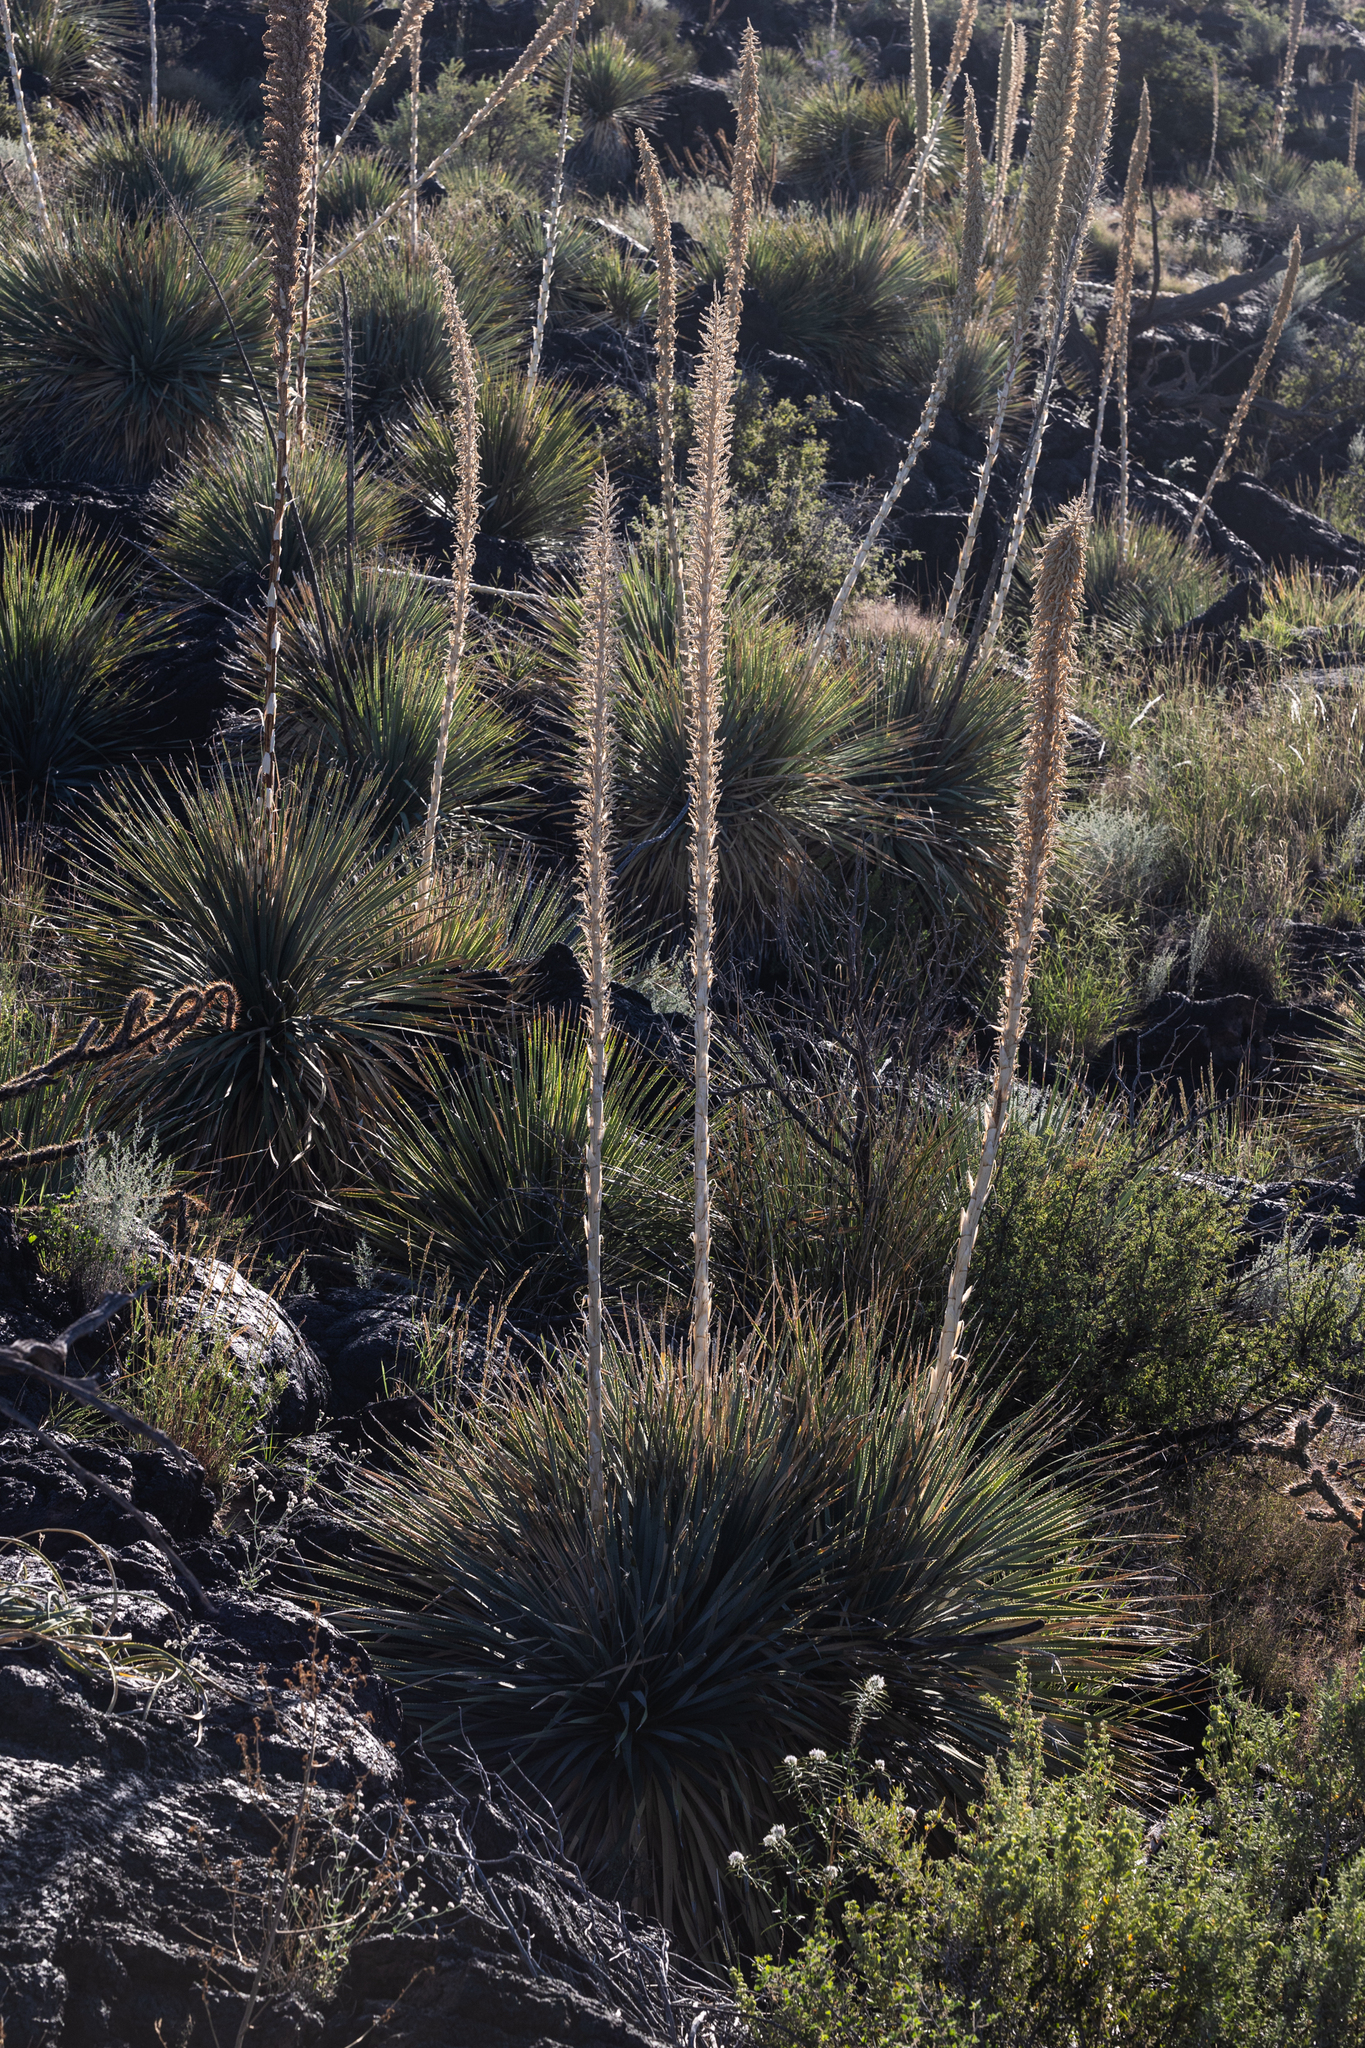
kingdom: Plantae
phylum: Tracheophyta
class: Liliopsida
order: Asparagales
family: Asparagaceae
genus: Dasylirion
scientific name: Dasylirion wheeleri
